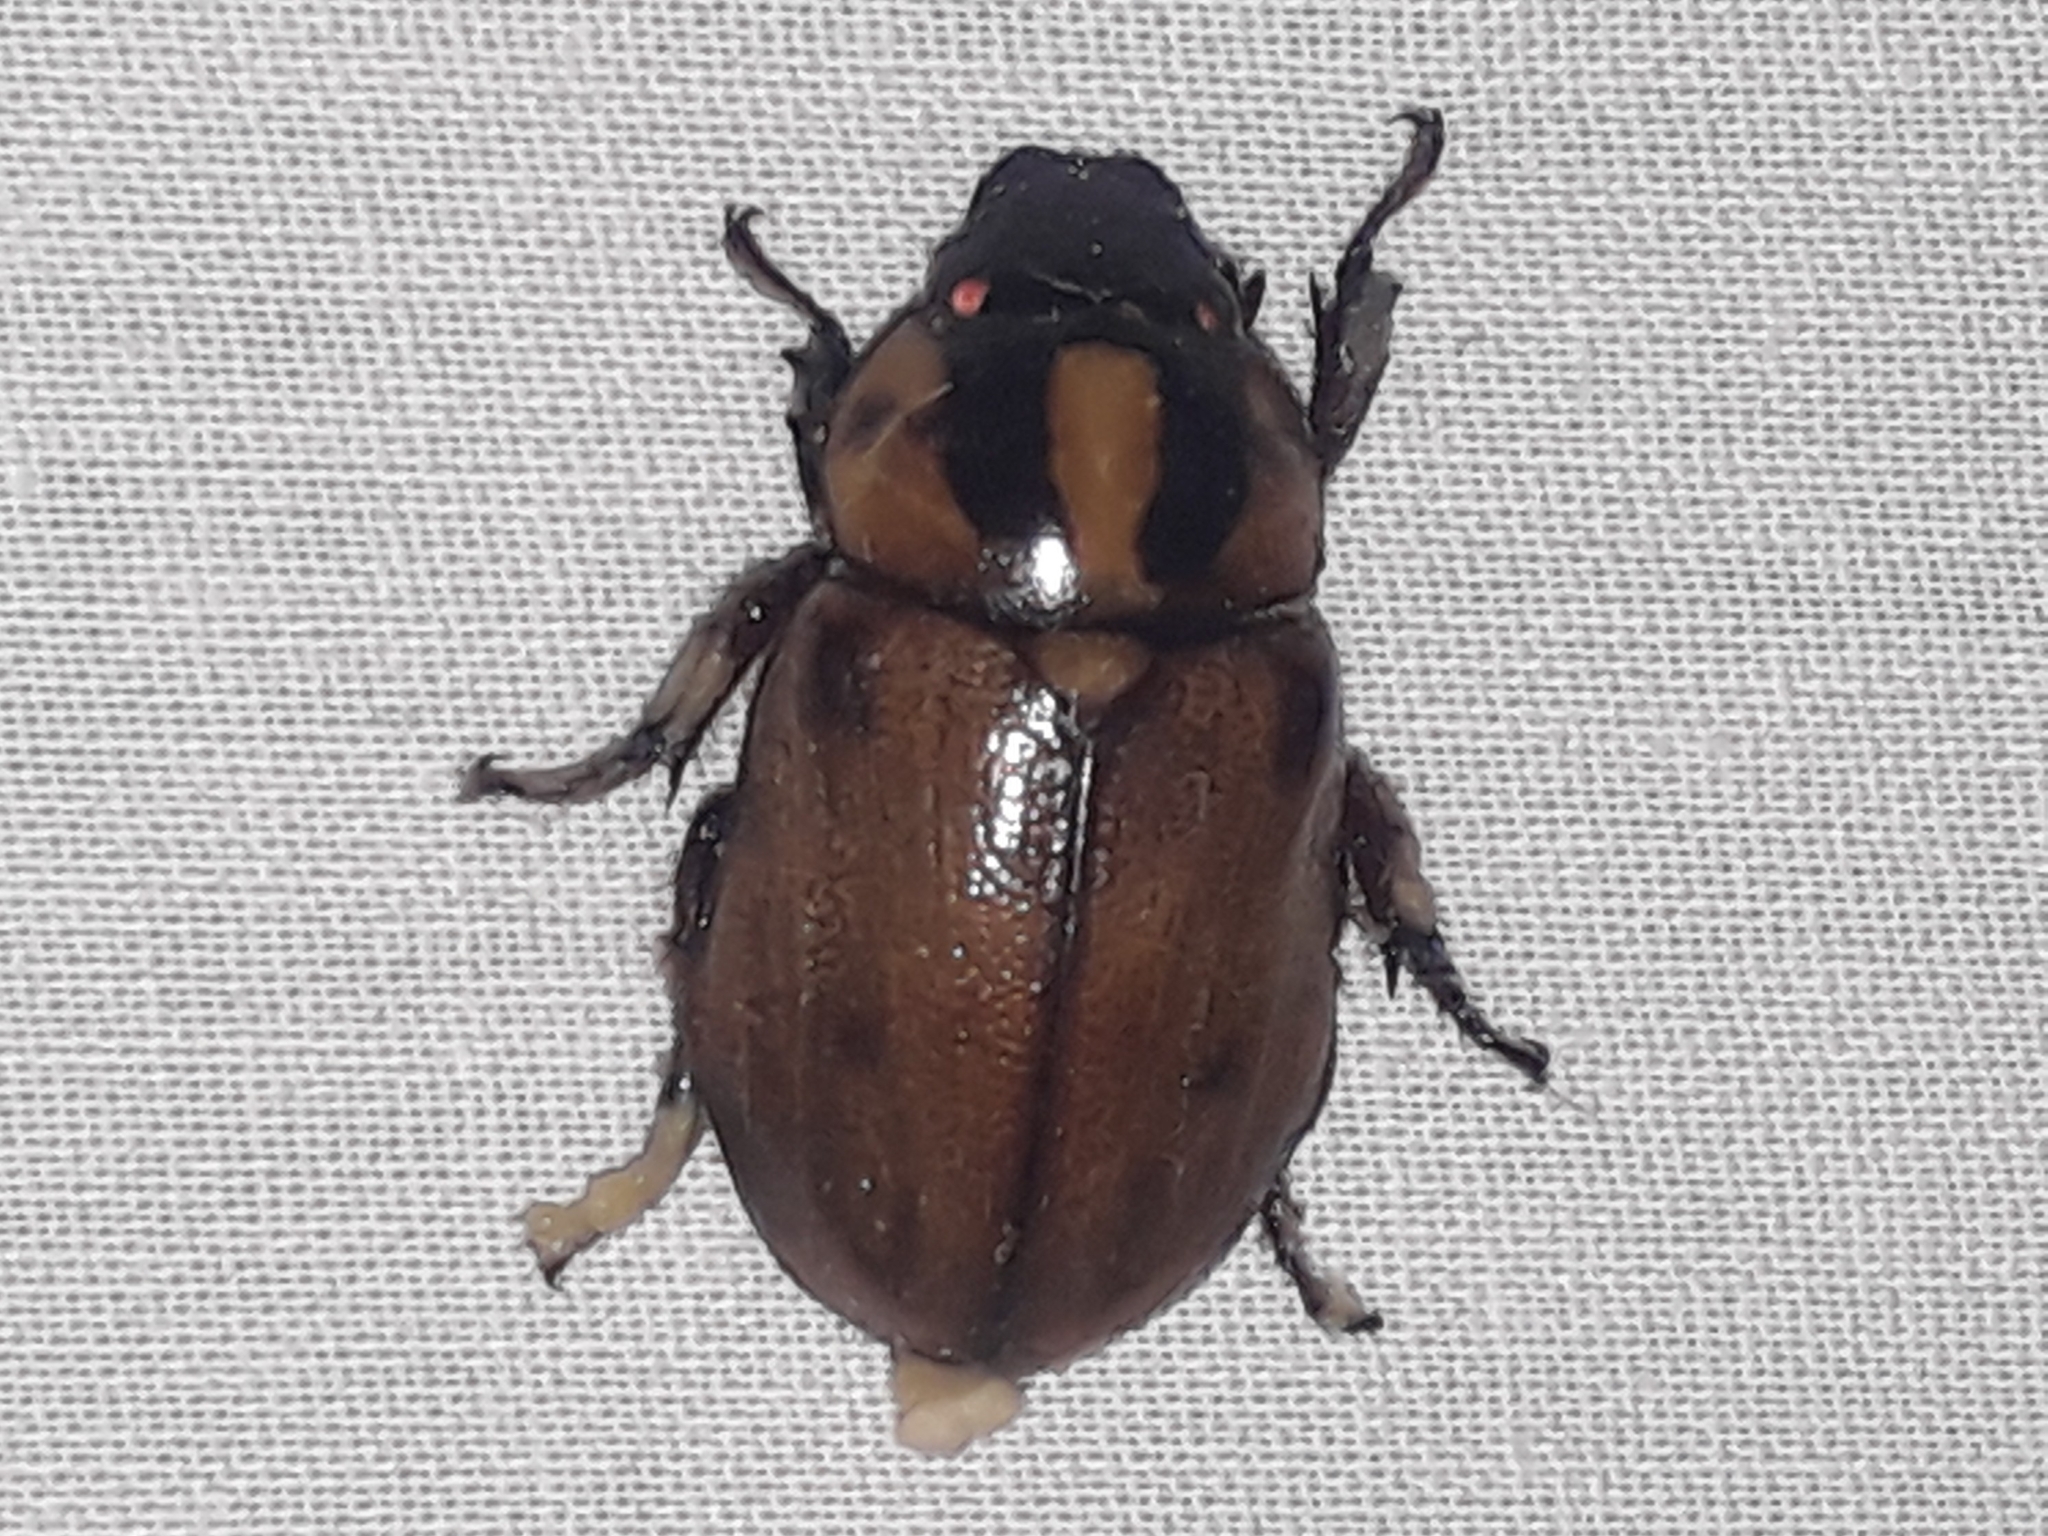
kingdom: Animalia
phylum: Arthropoda
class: Insecta
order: Coleoptera
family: Scarabaeidae
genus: Cyclocephala
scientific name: Cyclocephala mafaffa
